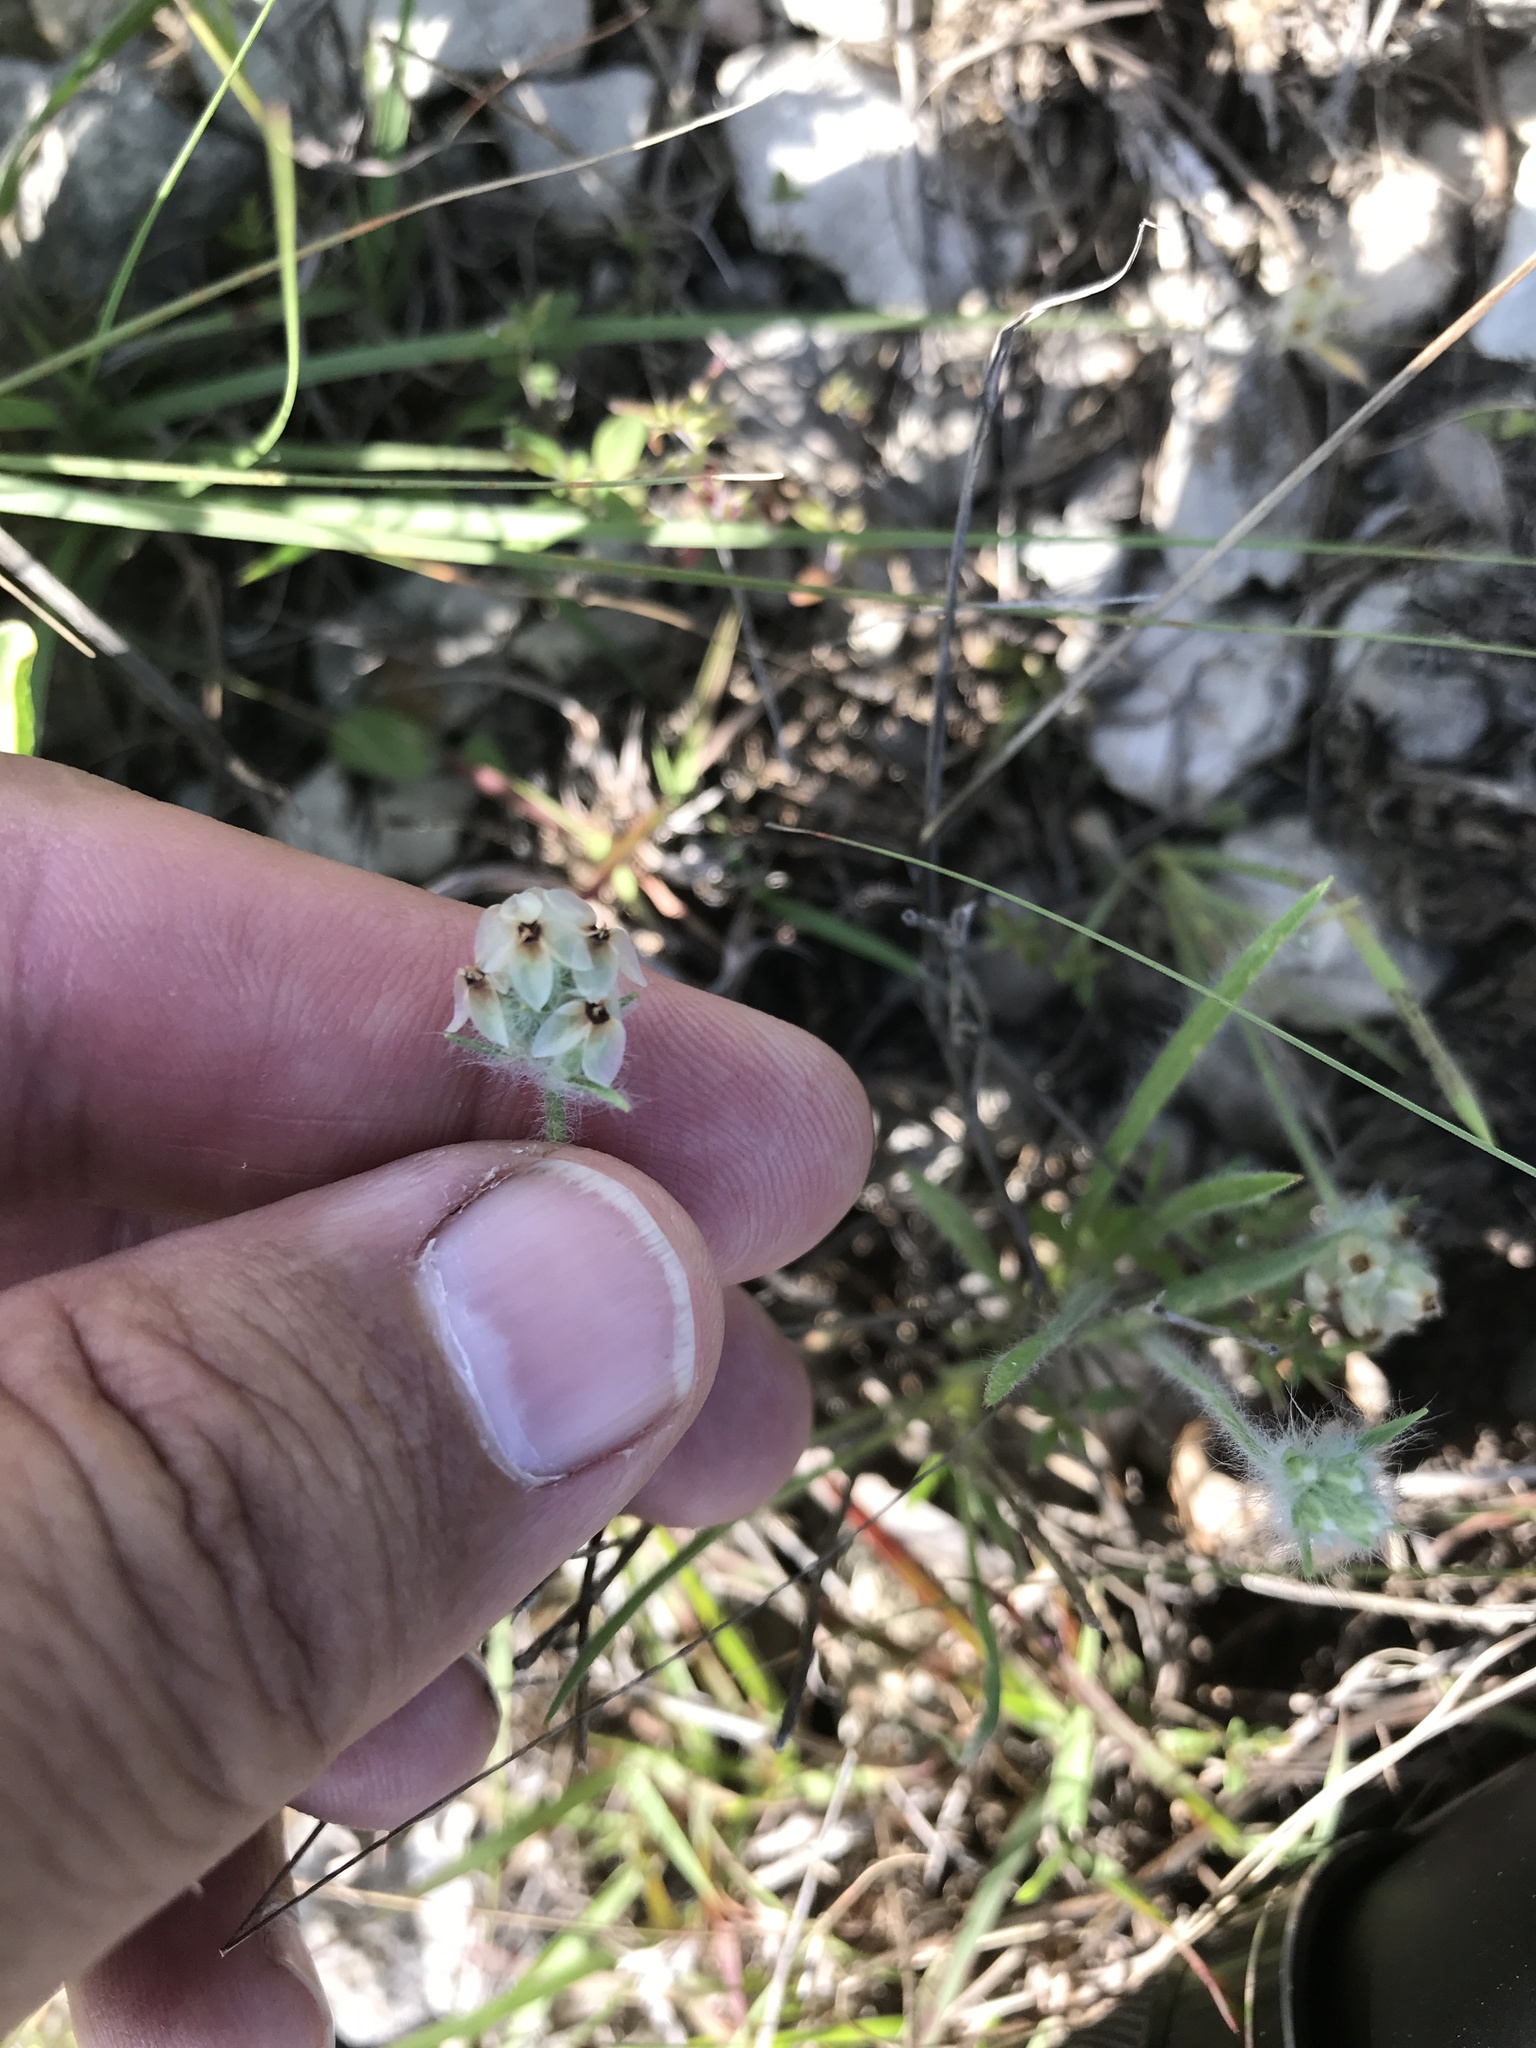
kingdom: Plantae
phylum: Tracheophyta
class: Magnoliopsida
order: Lamiales
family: Plantaginaceae
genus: Plantago
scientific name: Plantago helleri
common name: Heller's plantain
